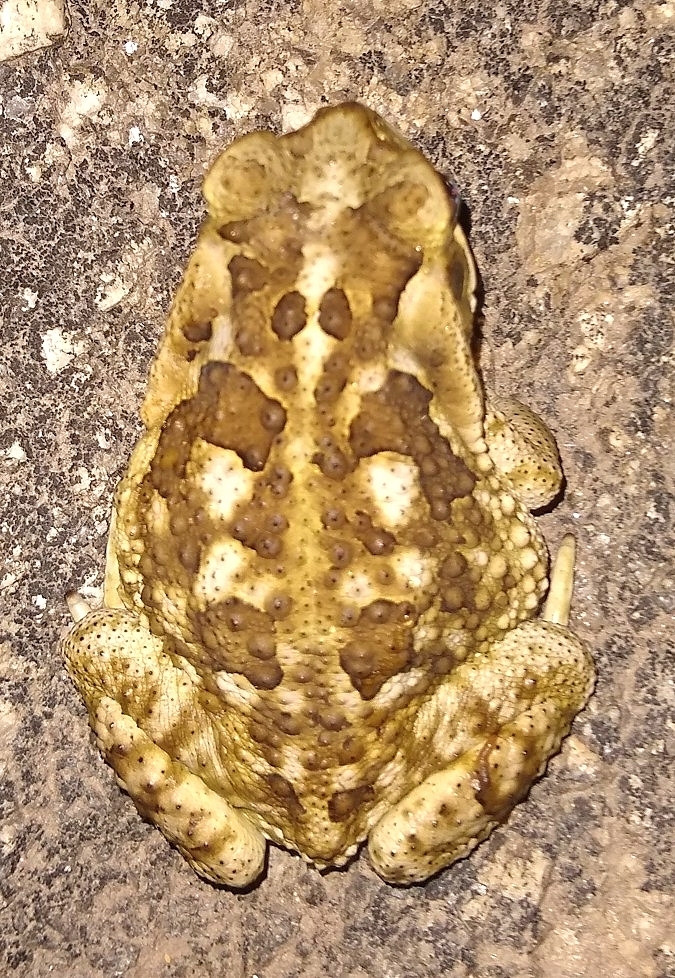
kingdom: Animalia
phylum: Chordata
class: Amphibia
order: Anura
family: Bufonidae
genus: Rhinella
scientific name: Rhinella arenarum
